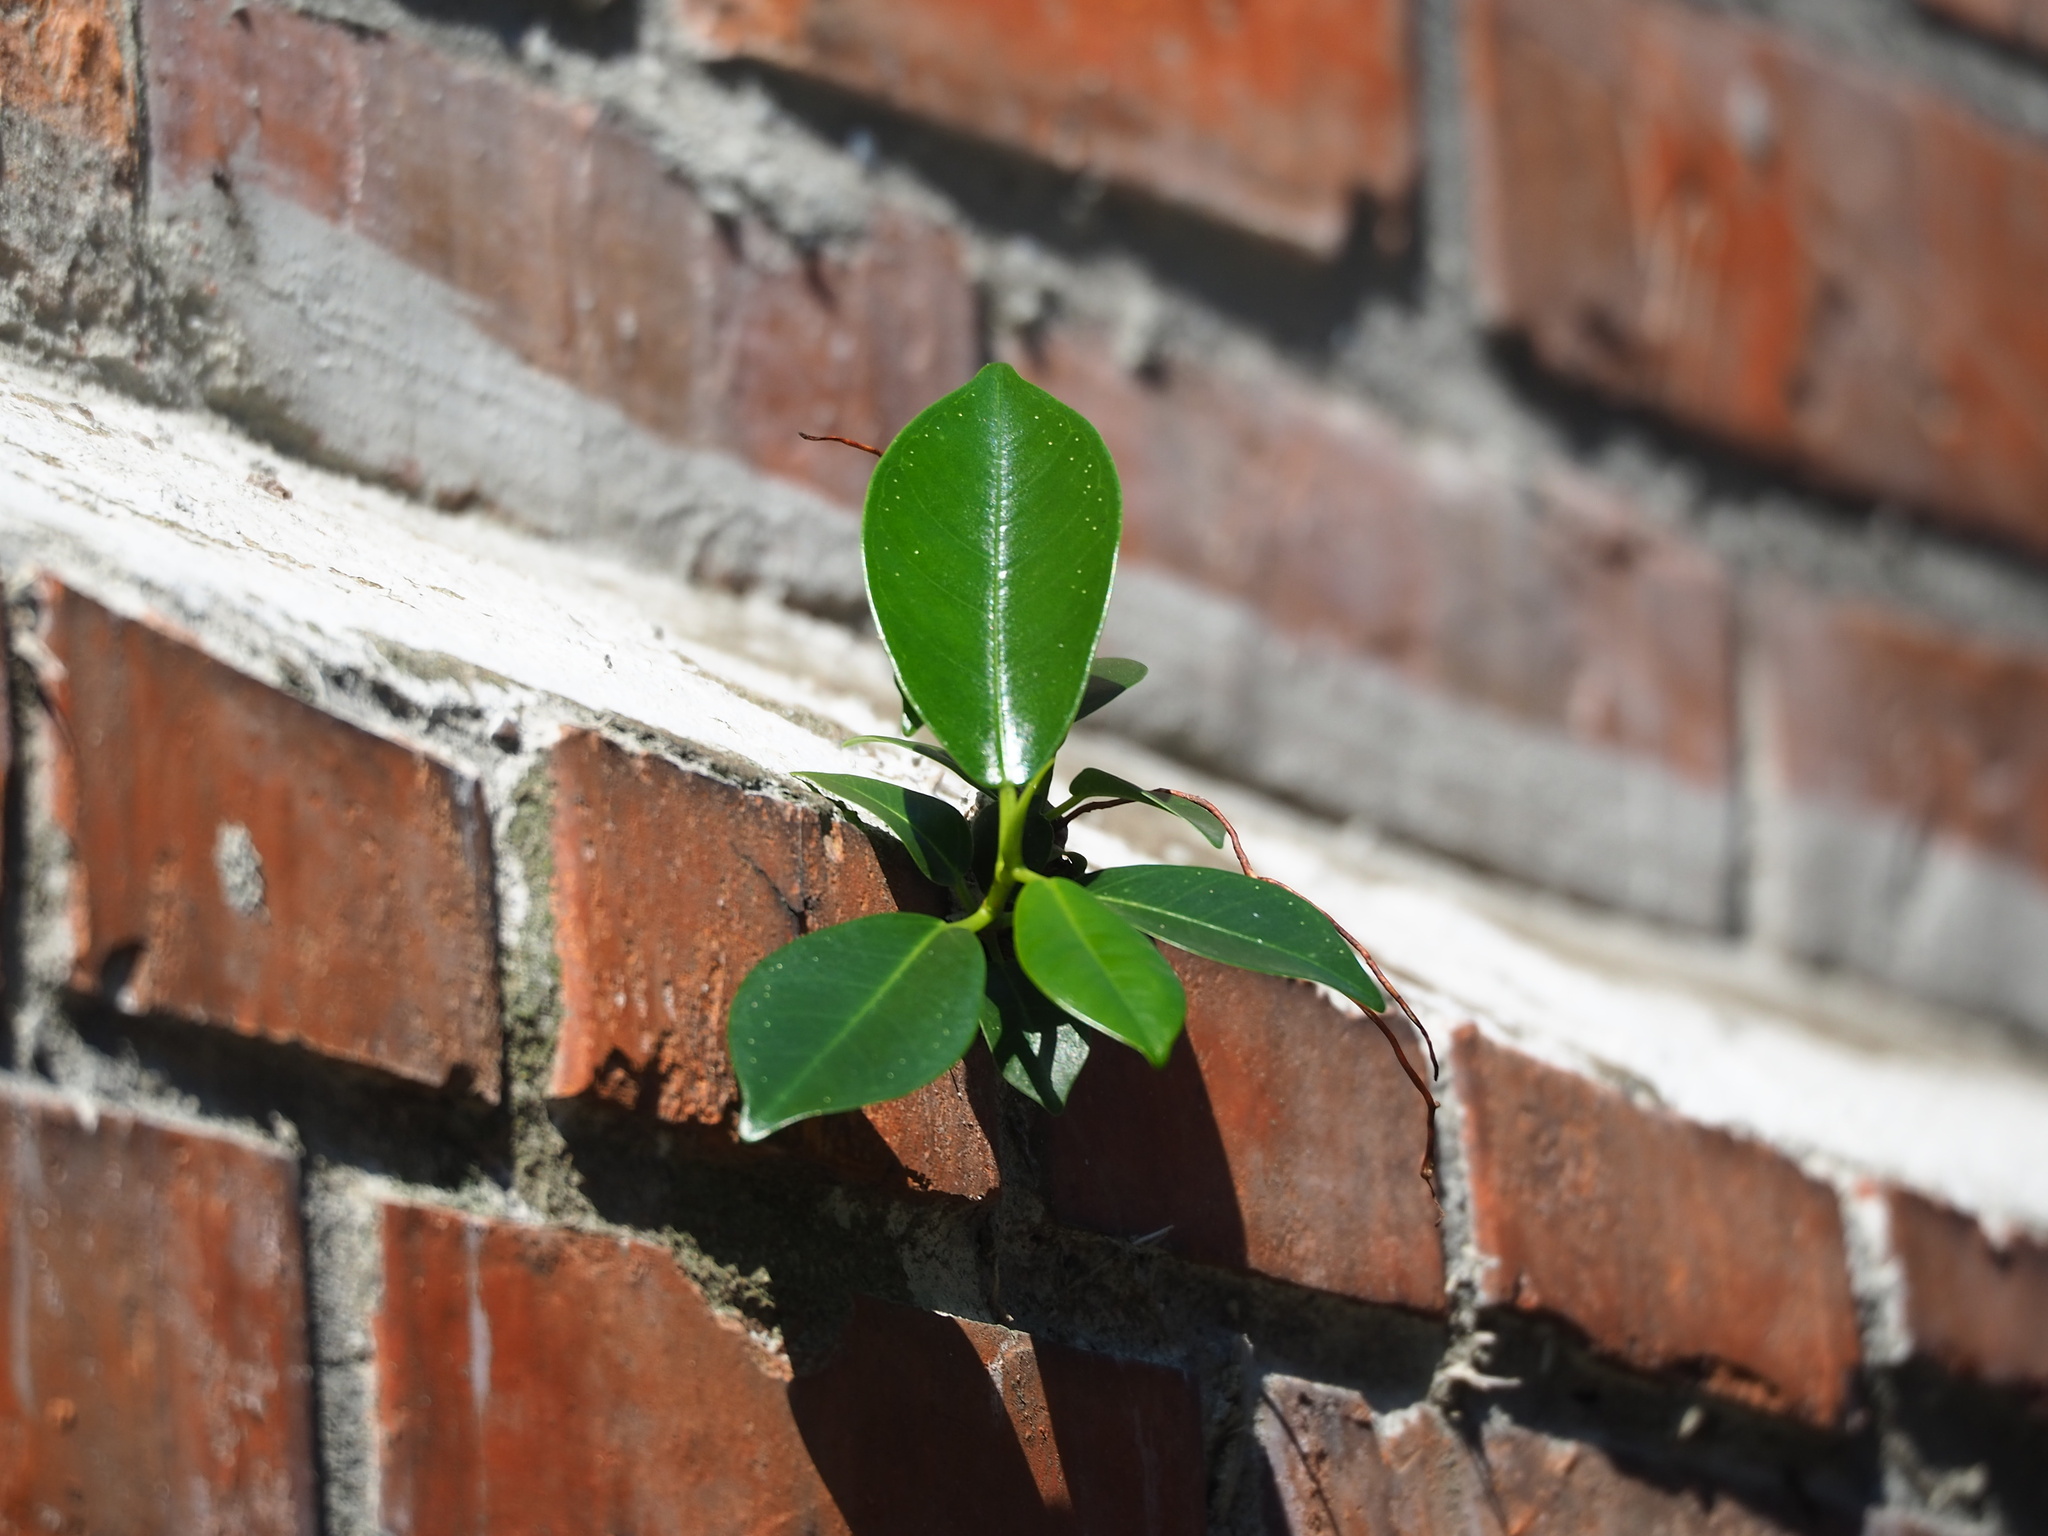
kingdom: Plantae
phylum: Tracheophyta
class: Magnoliopsida
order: Rosales
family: Moraceae
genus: Ficus
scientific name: Ficus microcarpa
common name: Chinese banyan
